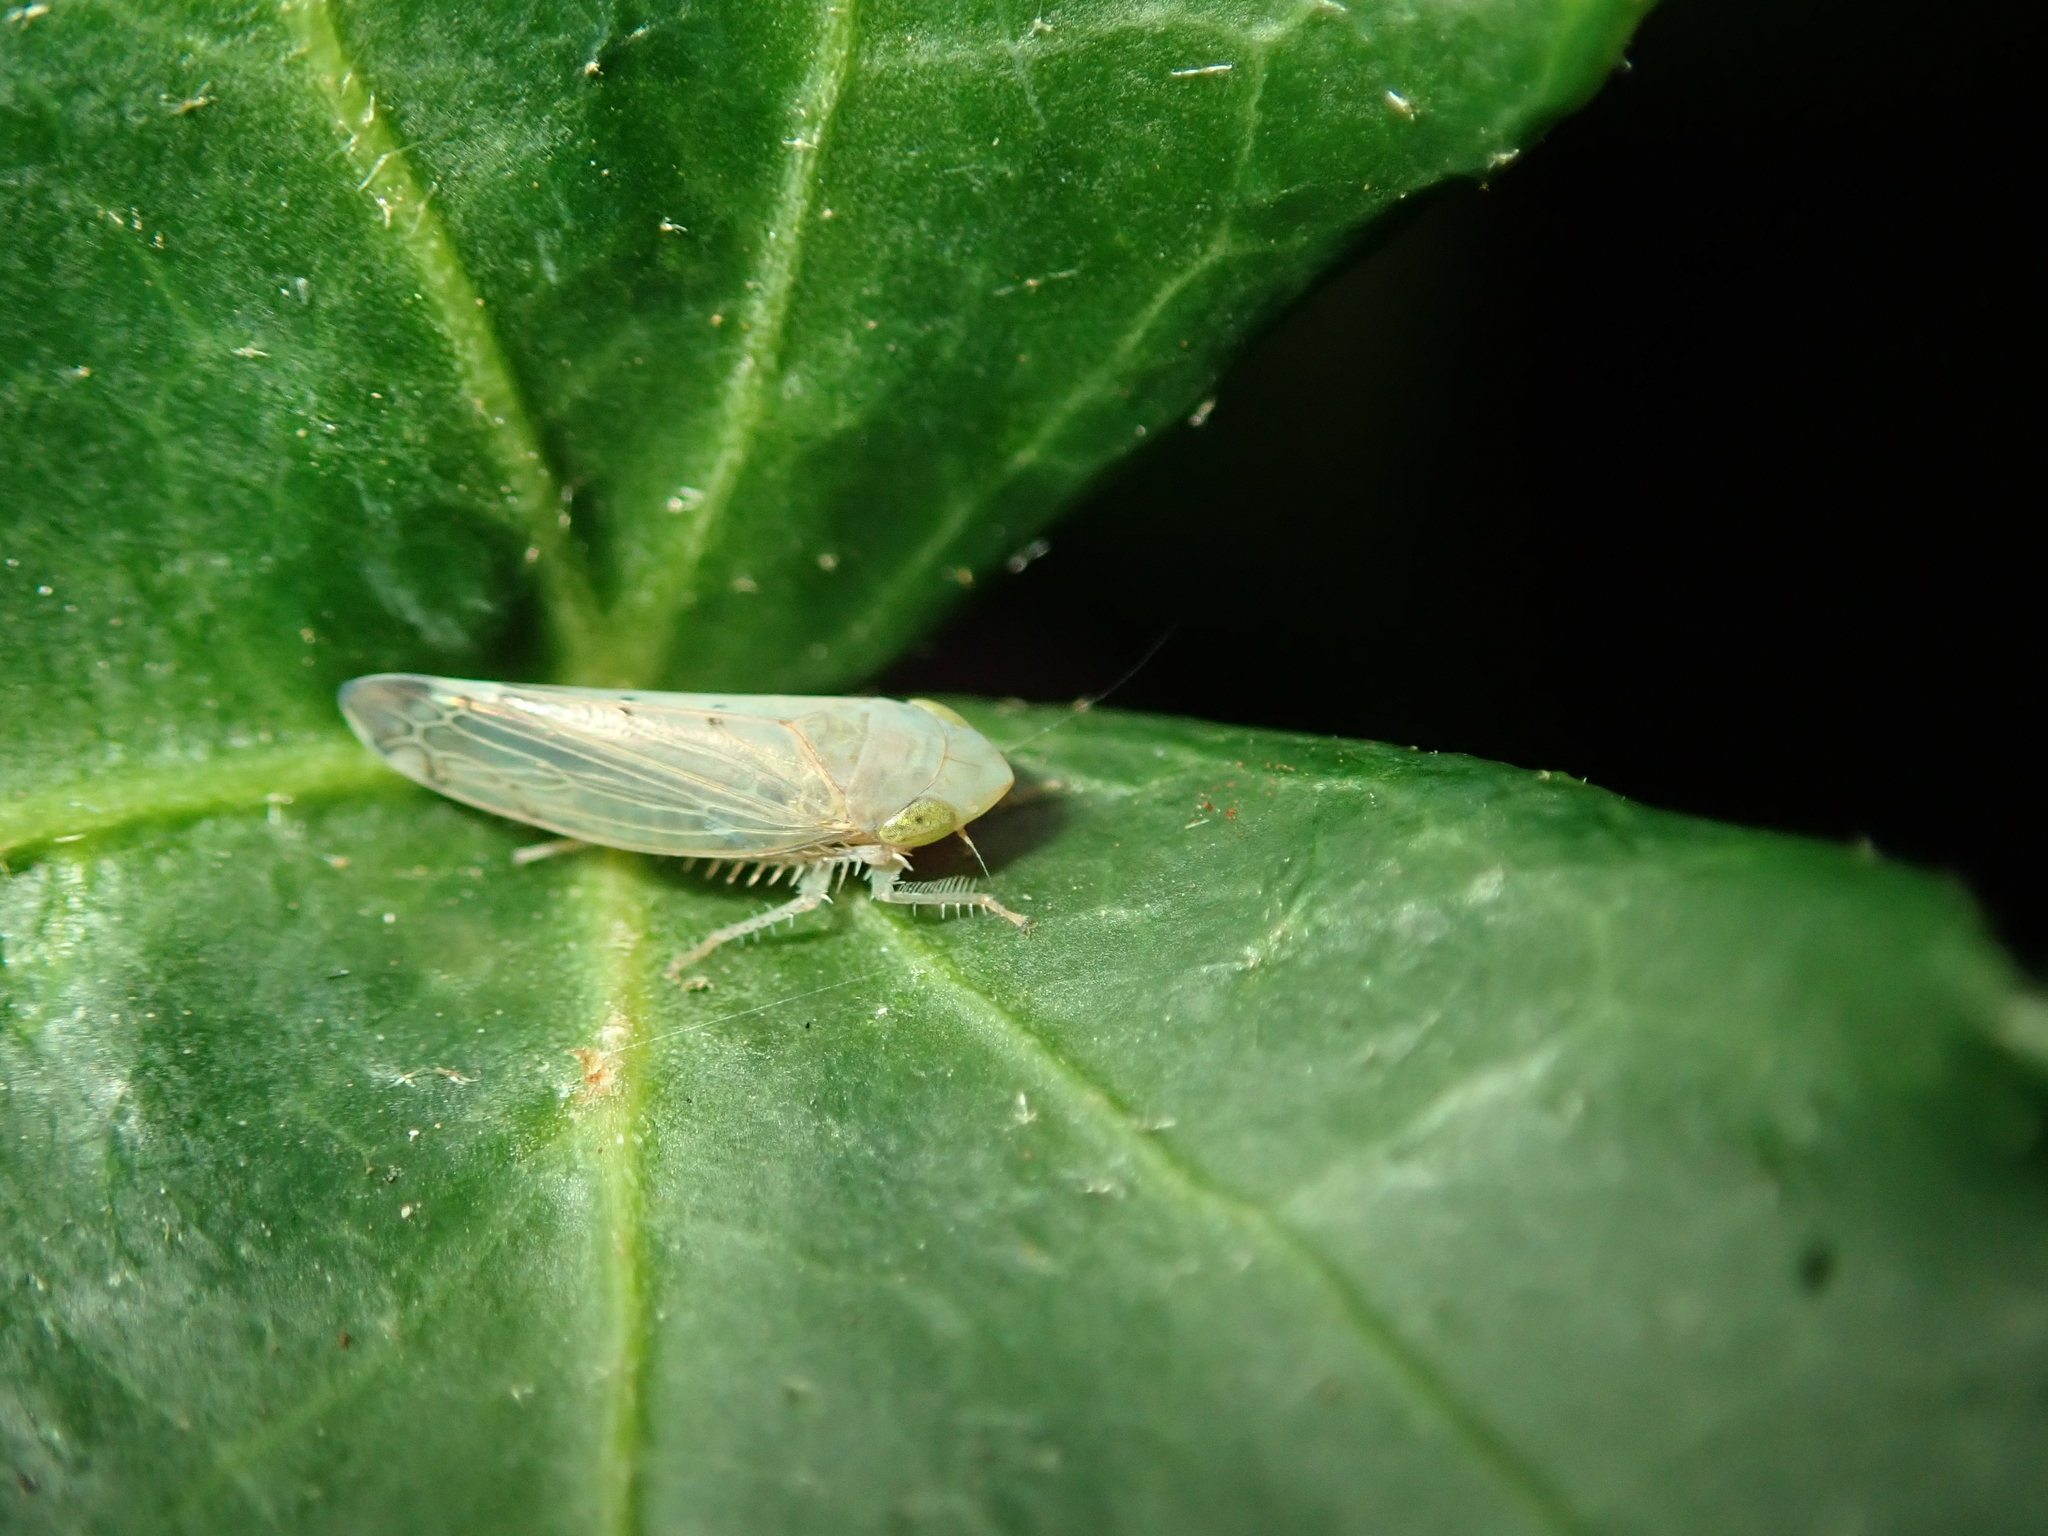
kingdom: Animalia
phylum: Arthropoda
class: Insecta
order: Hemiptera
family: Cicadellidae
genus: Synophropsis
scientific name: Synophropsis lauri
